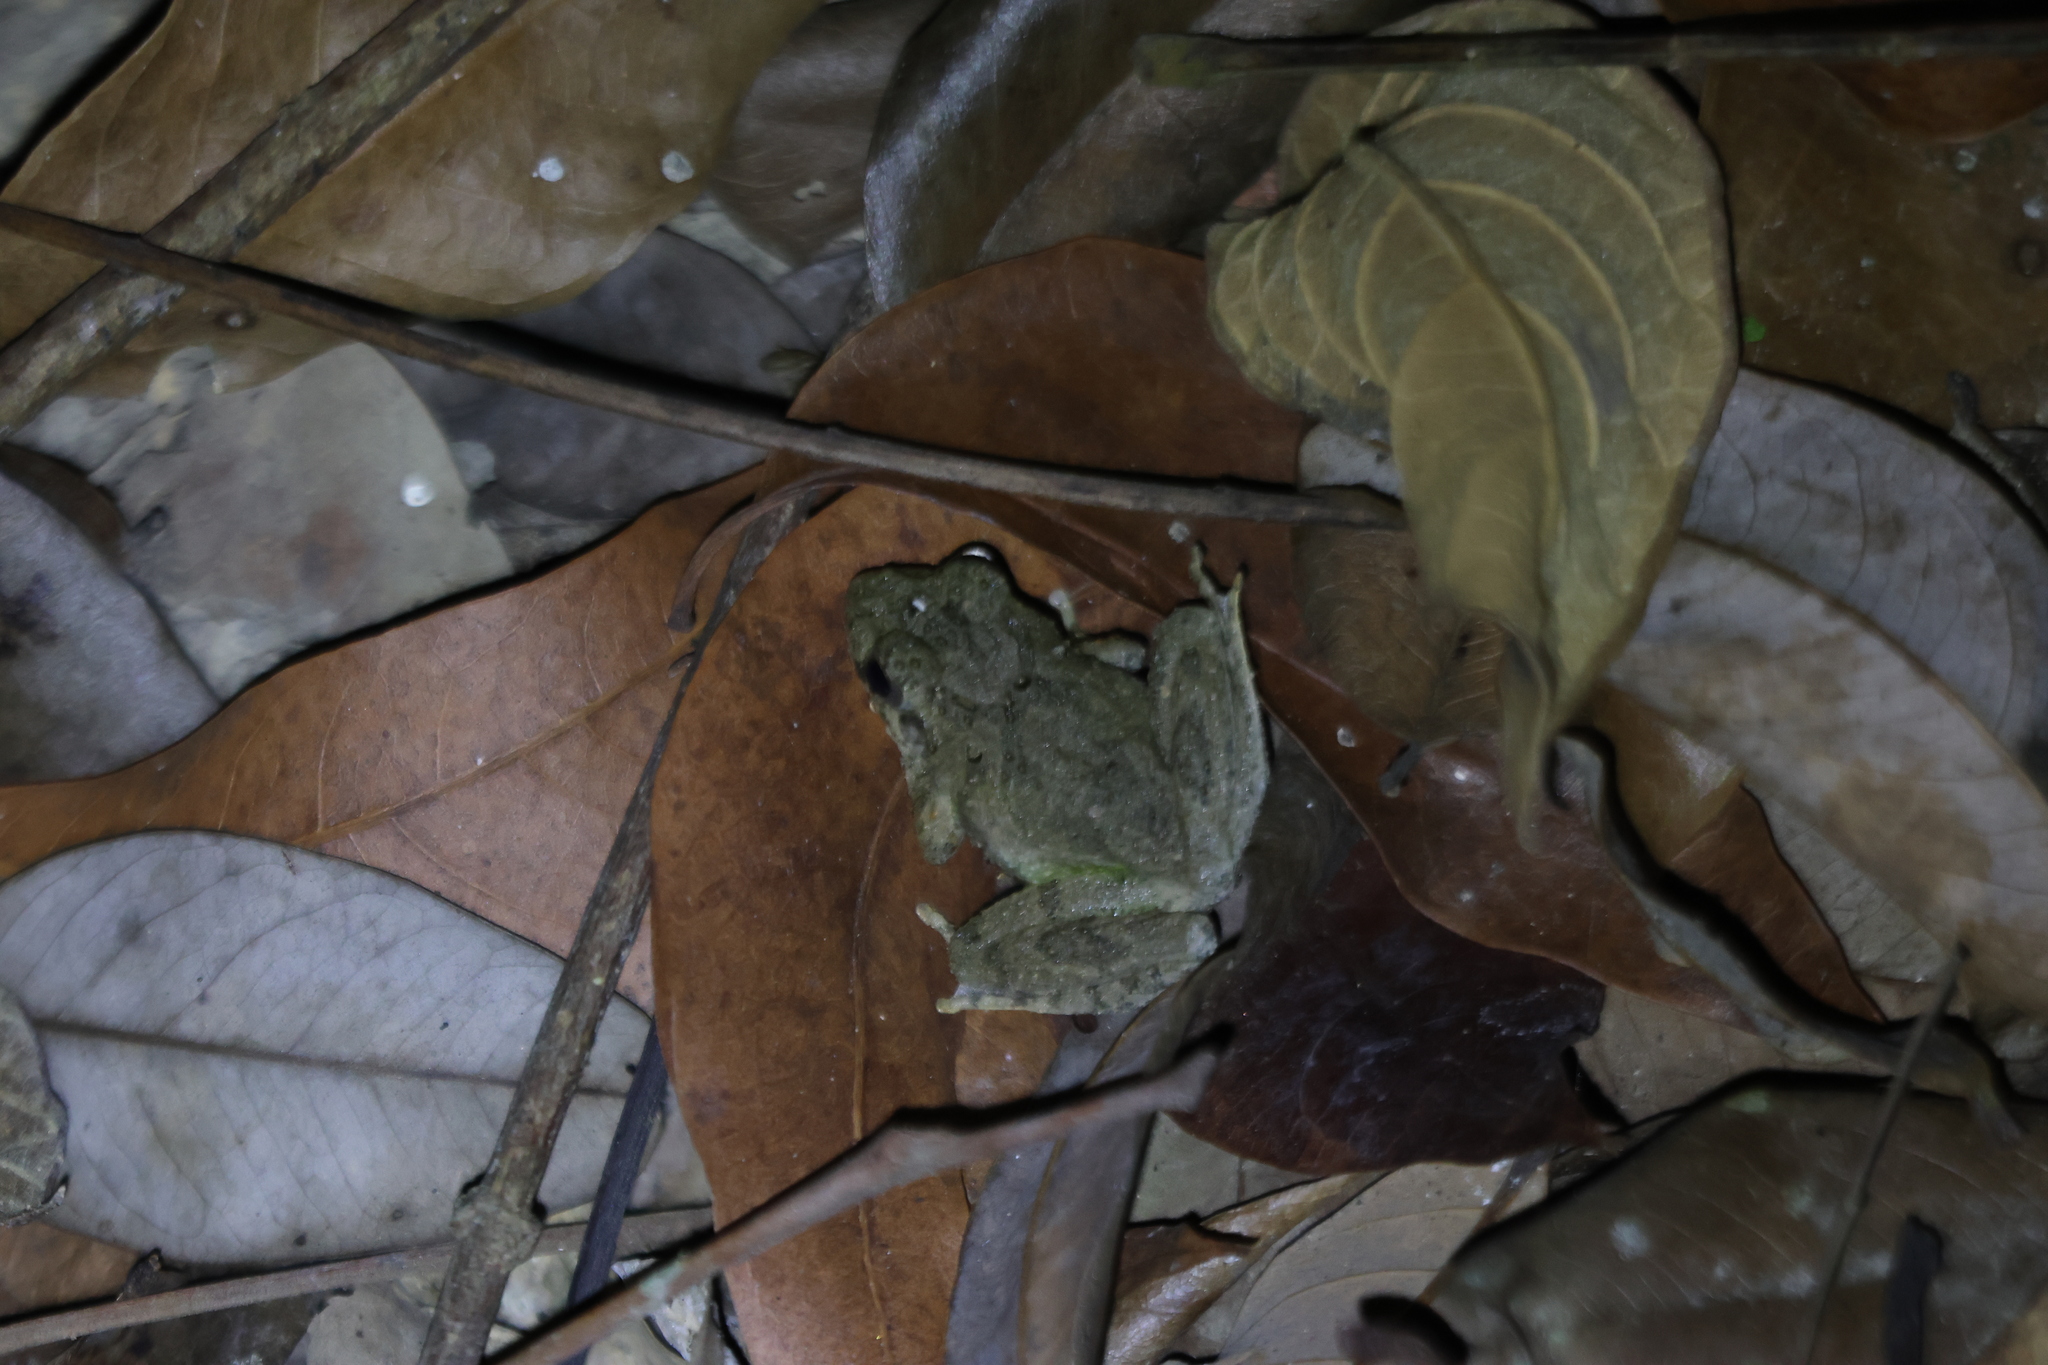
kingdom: Animalia
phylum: Chordata
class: Amphibia
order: Anura
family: Rhacophoridae
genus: Buergeria
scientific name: Buergeria otai
